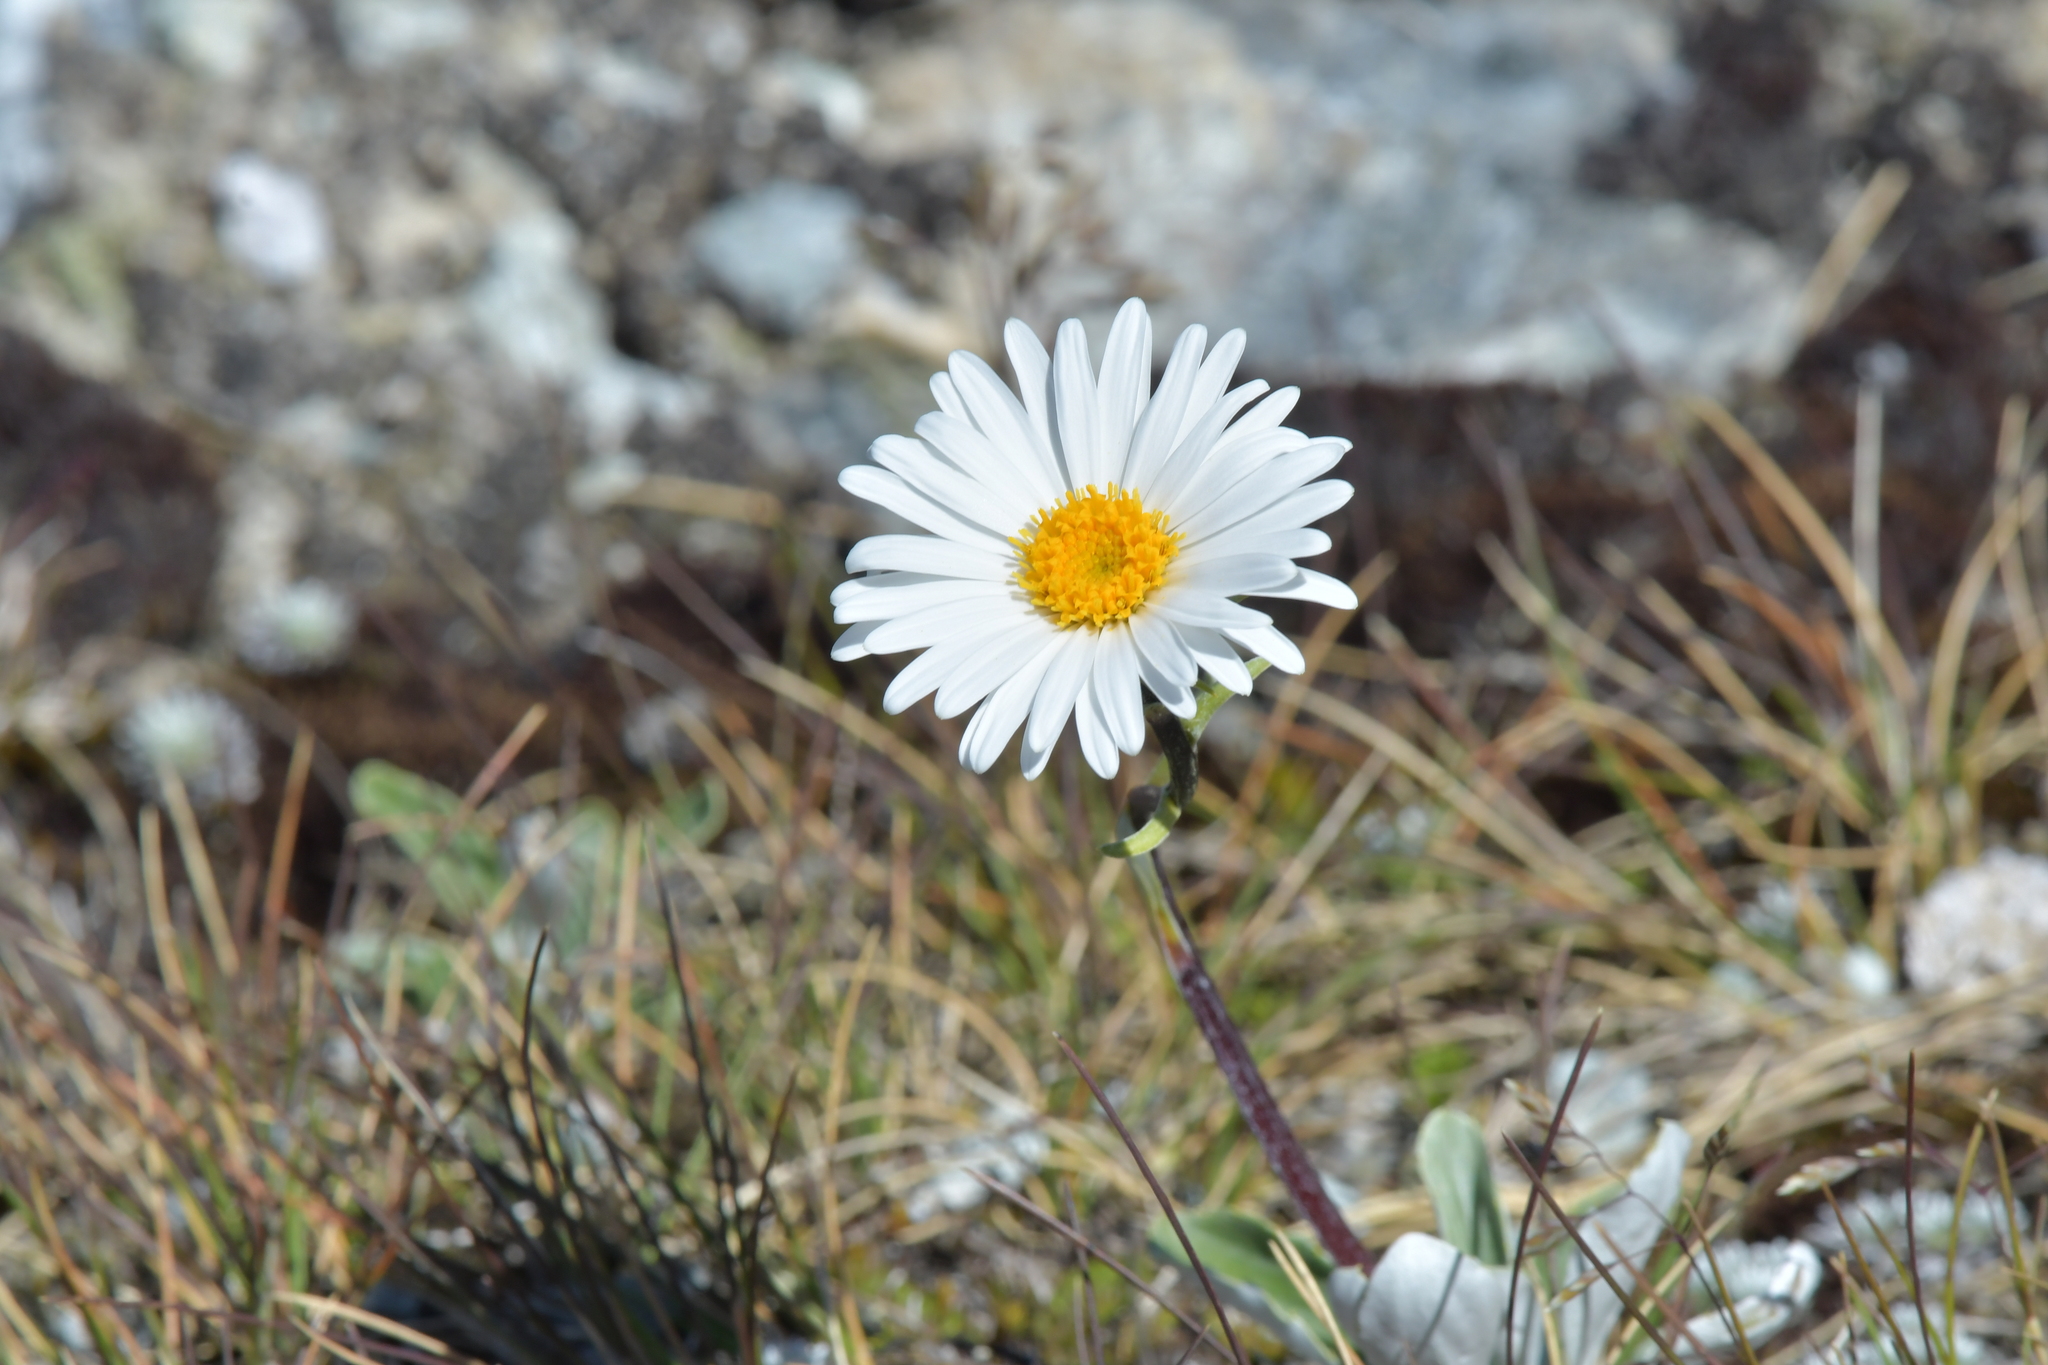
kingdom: Plantae
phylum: Tracheophyta
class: Magnoliopsida
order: Asterales
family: Asteraceae
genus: Celmisia
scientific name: Celmisia durietzii
